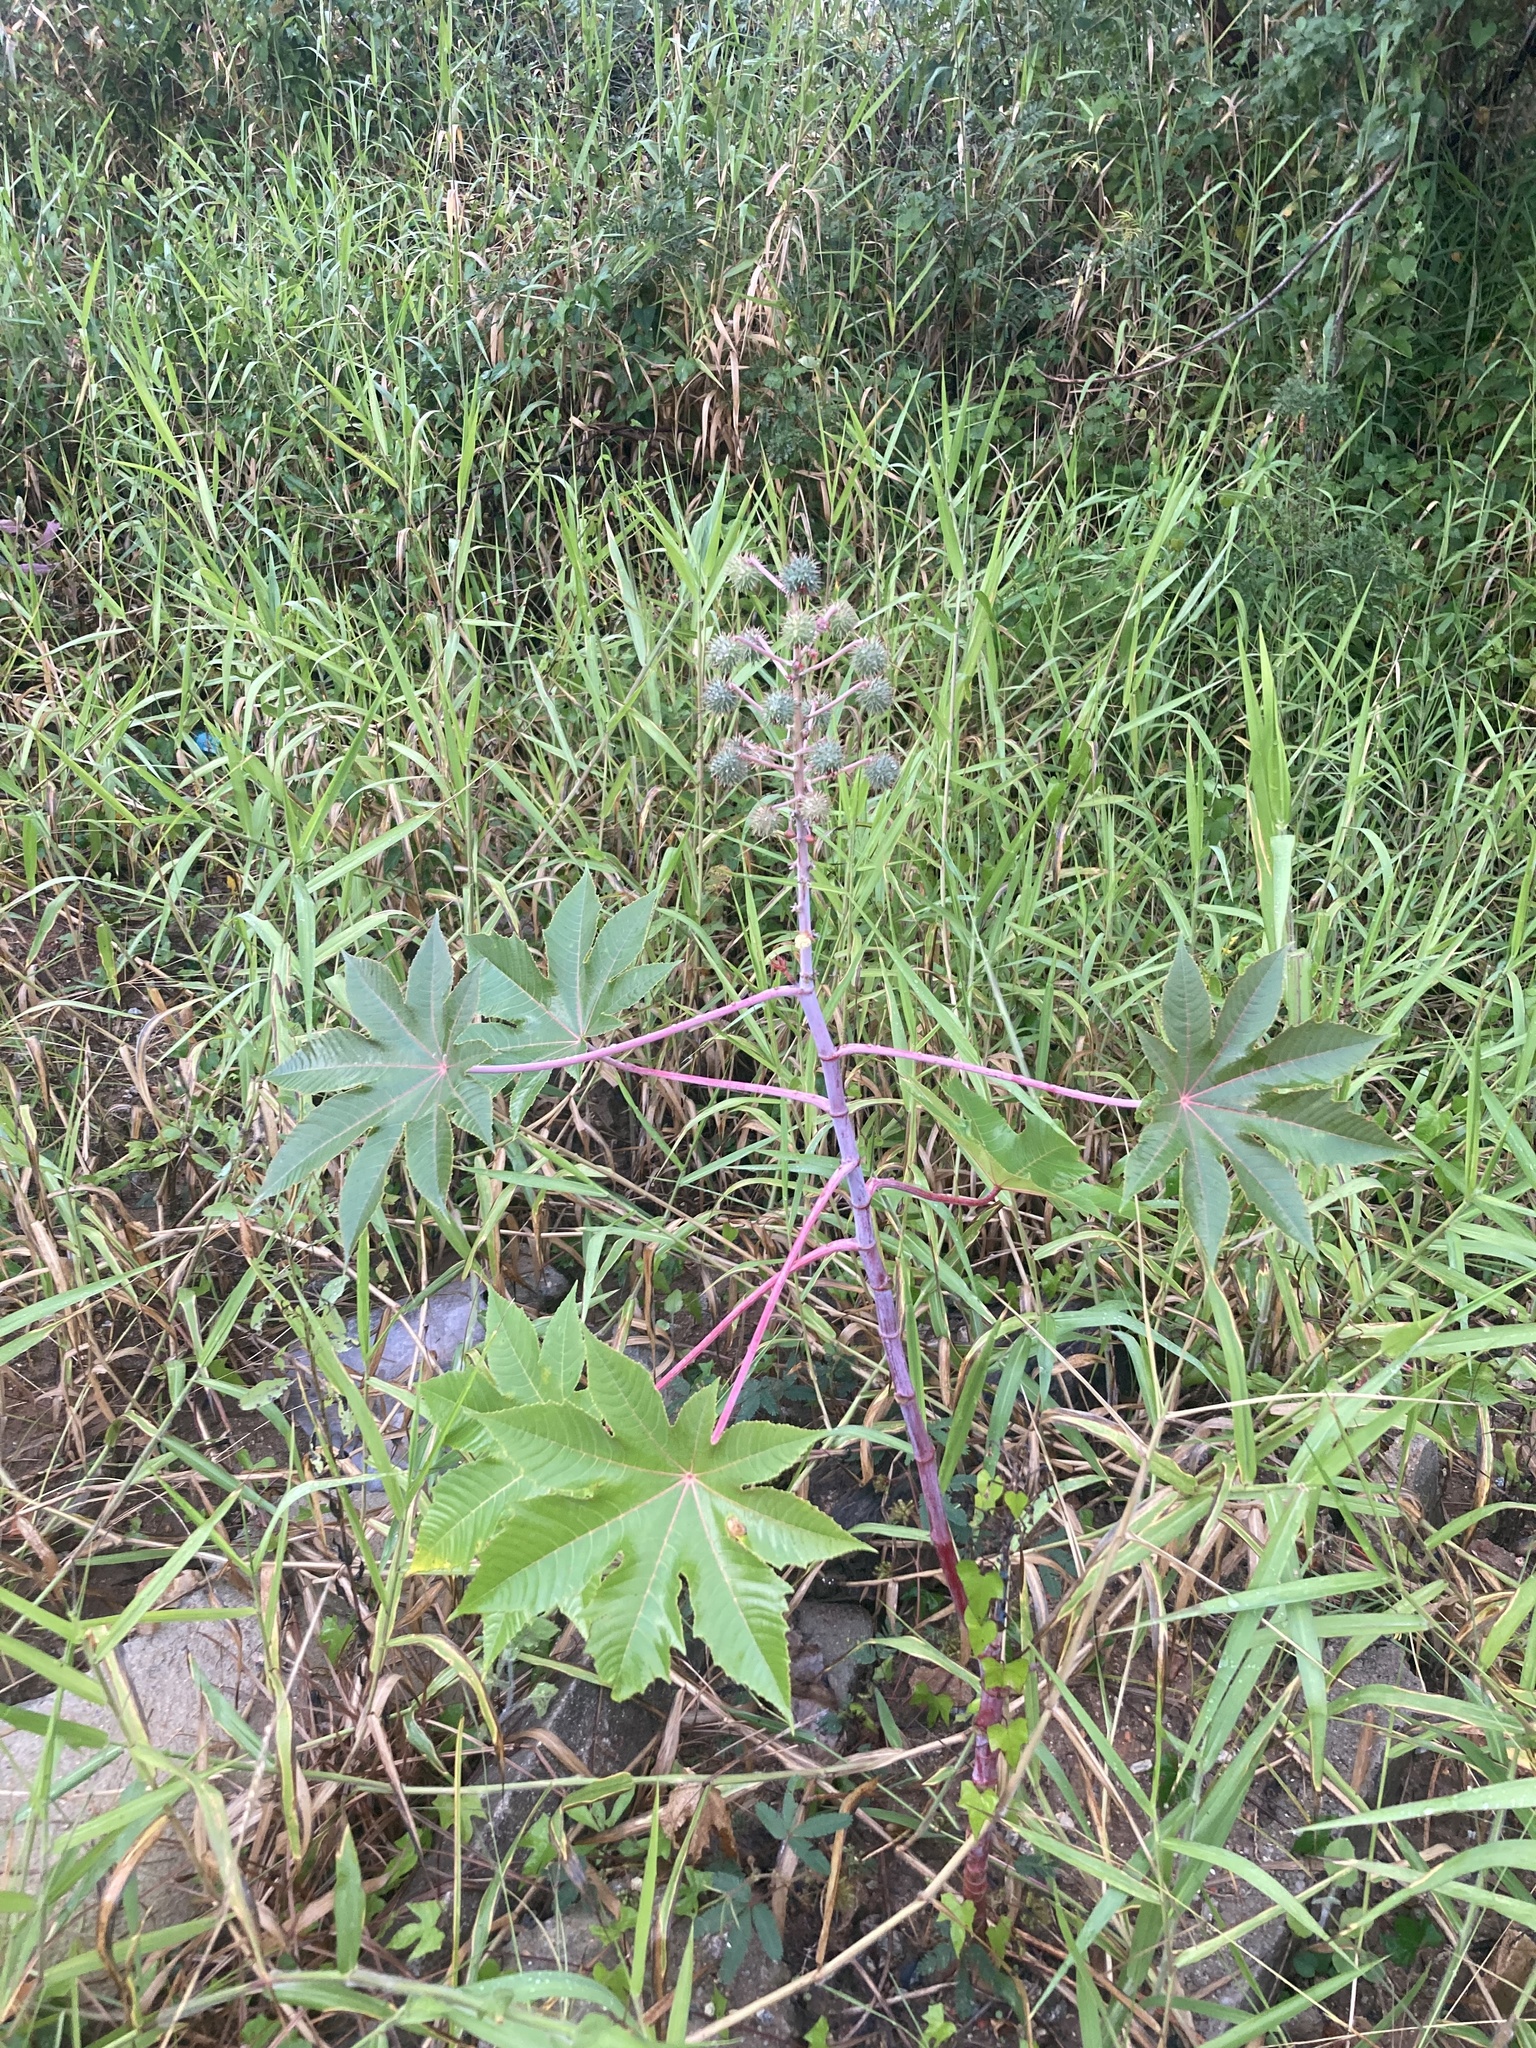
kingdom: Plantae
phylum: Tracheophyta
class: Magnoliopsida
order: Malpighiales
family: Euphorbiaceae
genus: Ricinus
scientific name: Ricinus communis
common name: Castor-oil-plant
